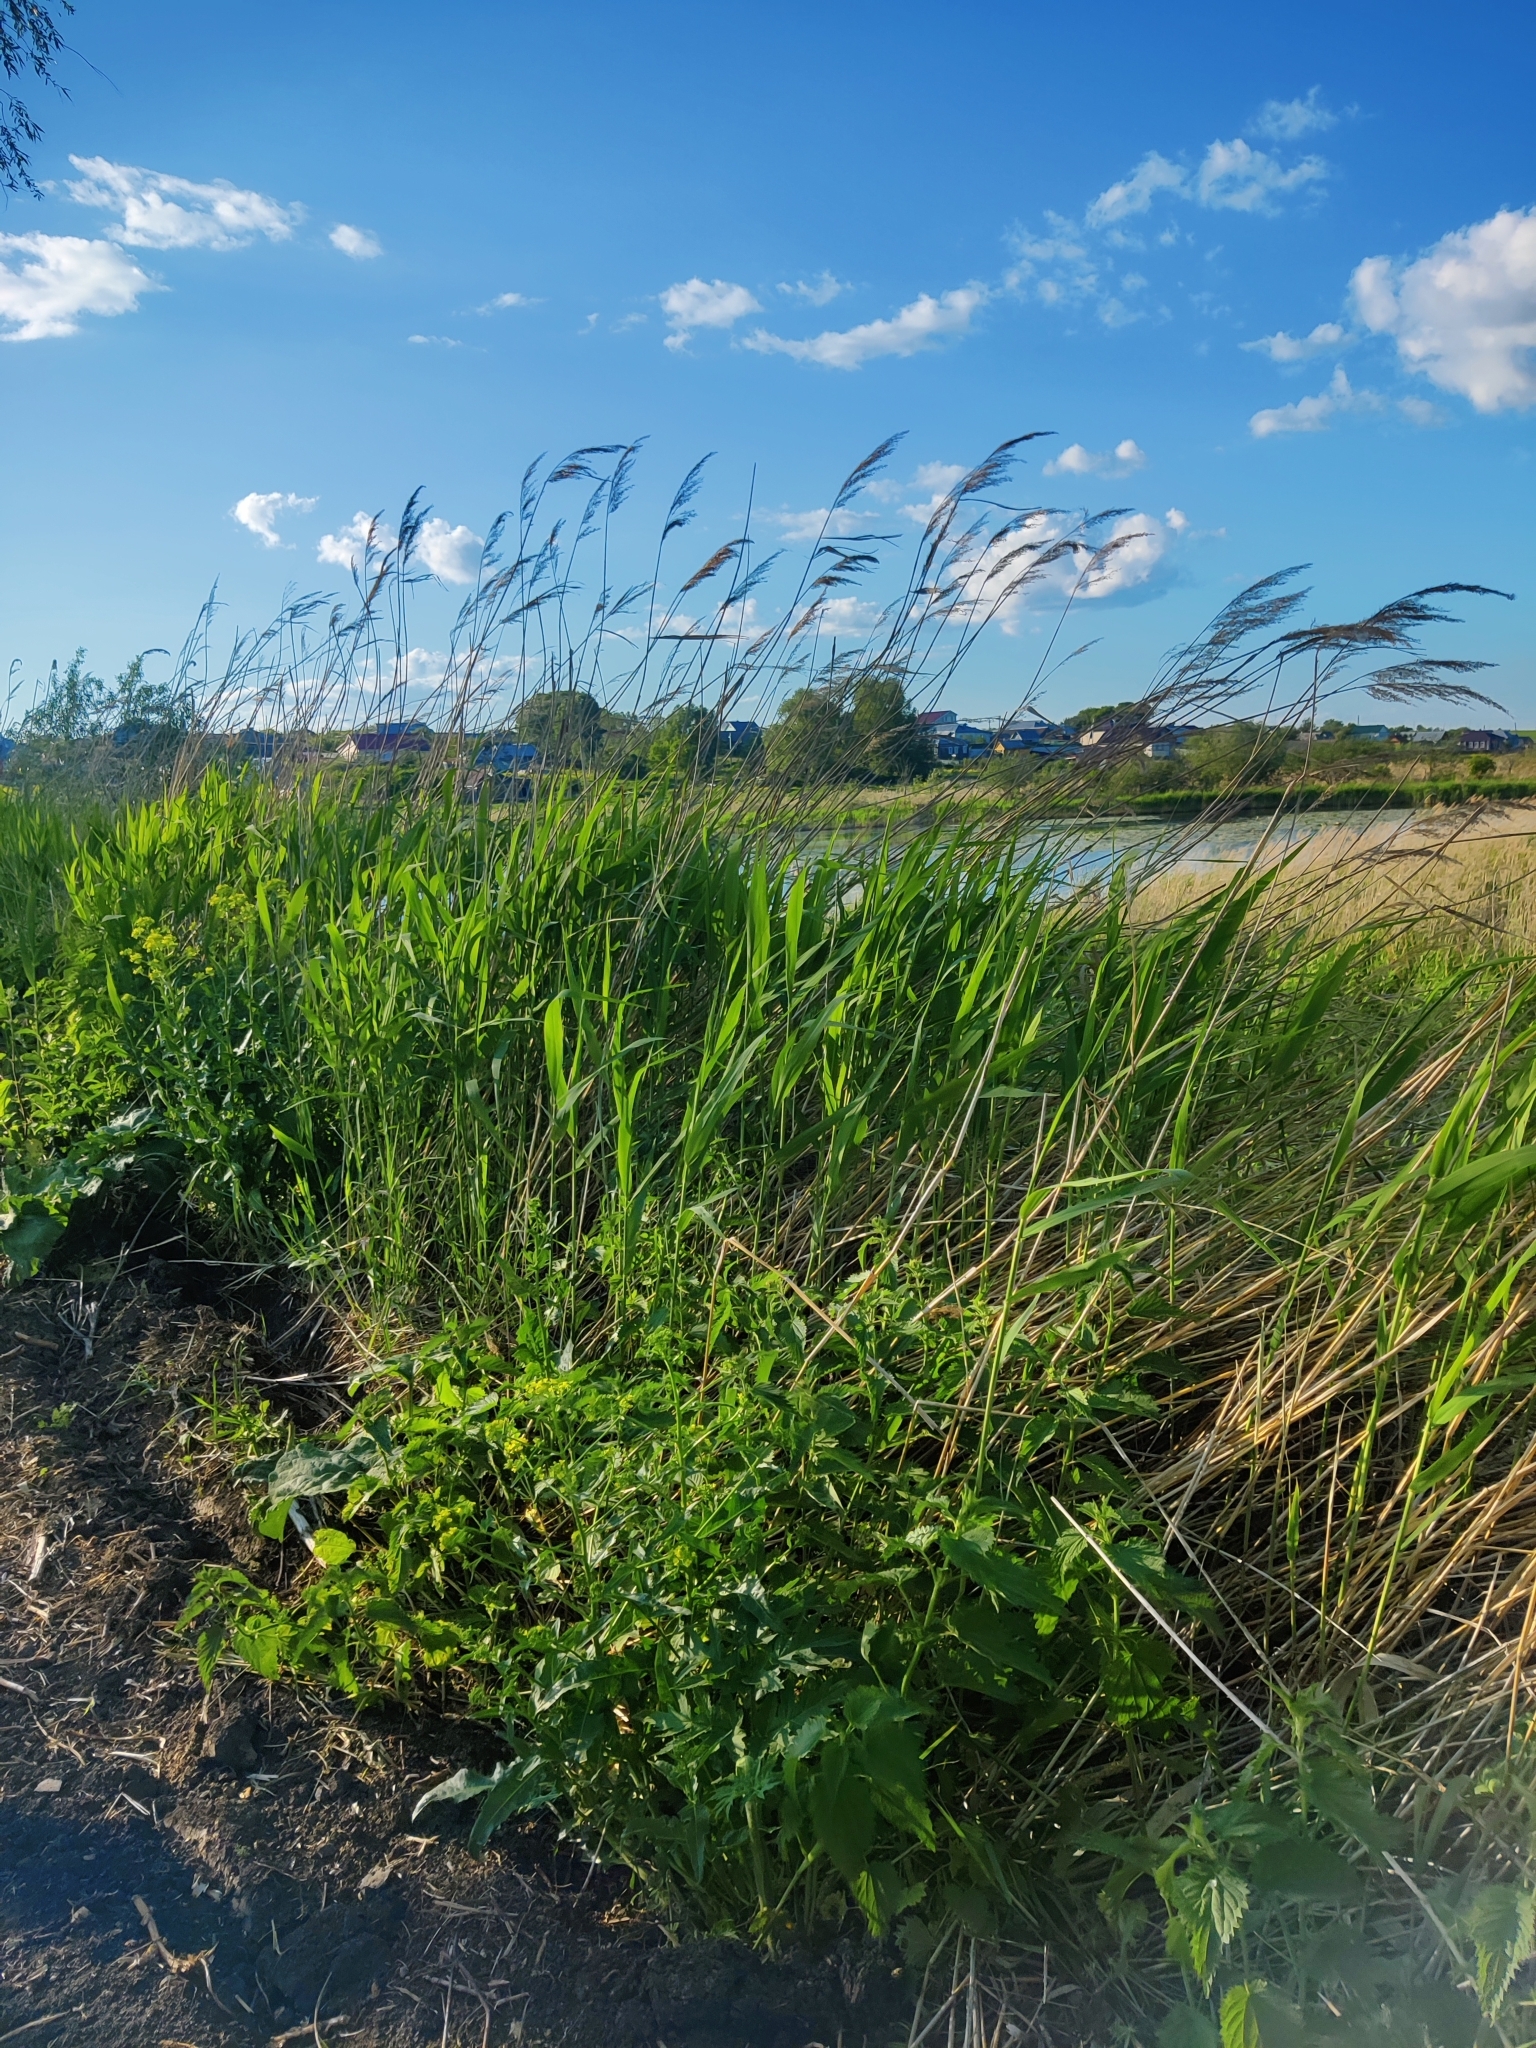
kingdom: Plantae
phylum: Tracheophyta
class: Liliopsida
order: Poales
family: Poaceae
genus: Phragmites
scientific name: Phragmites australis
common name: Common reed
